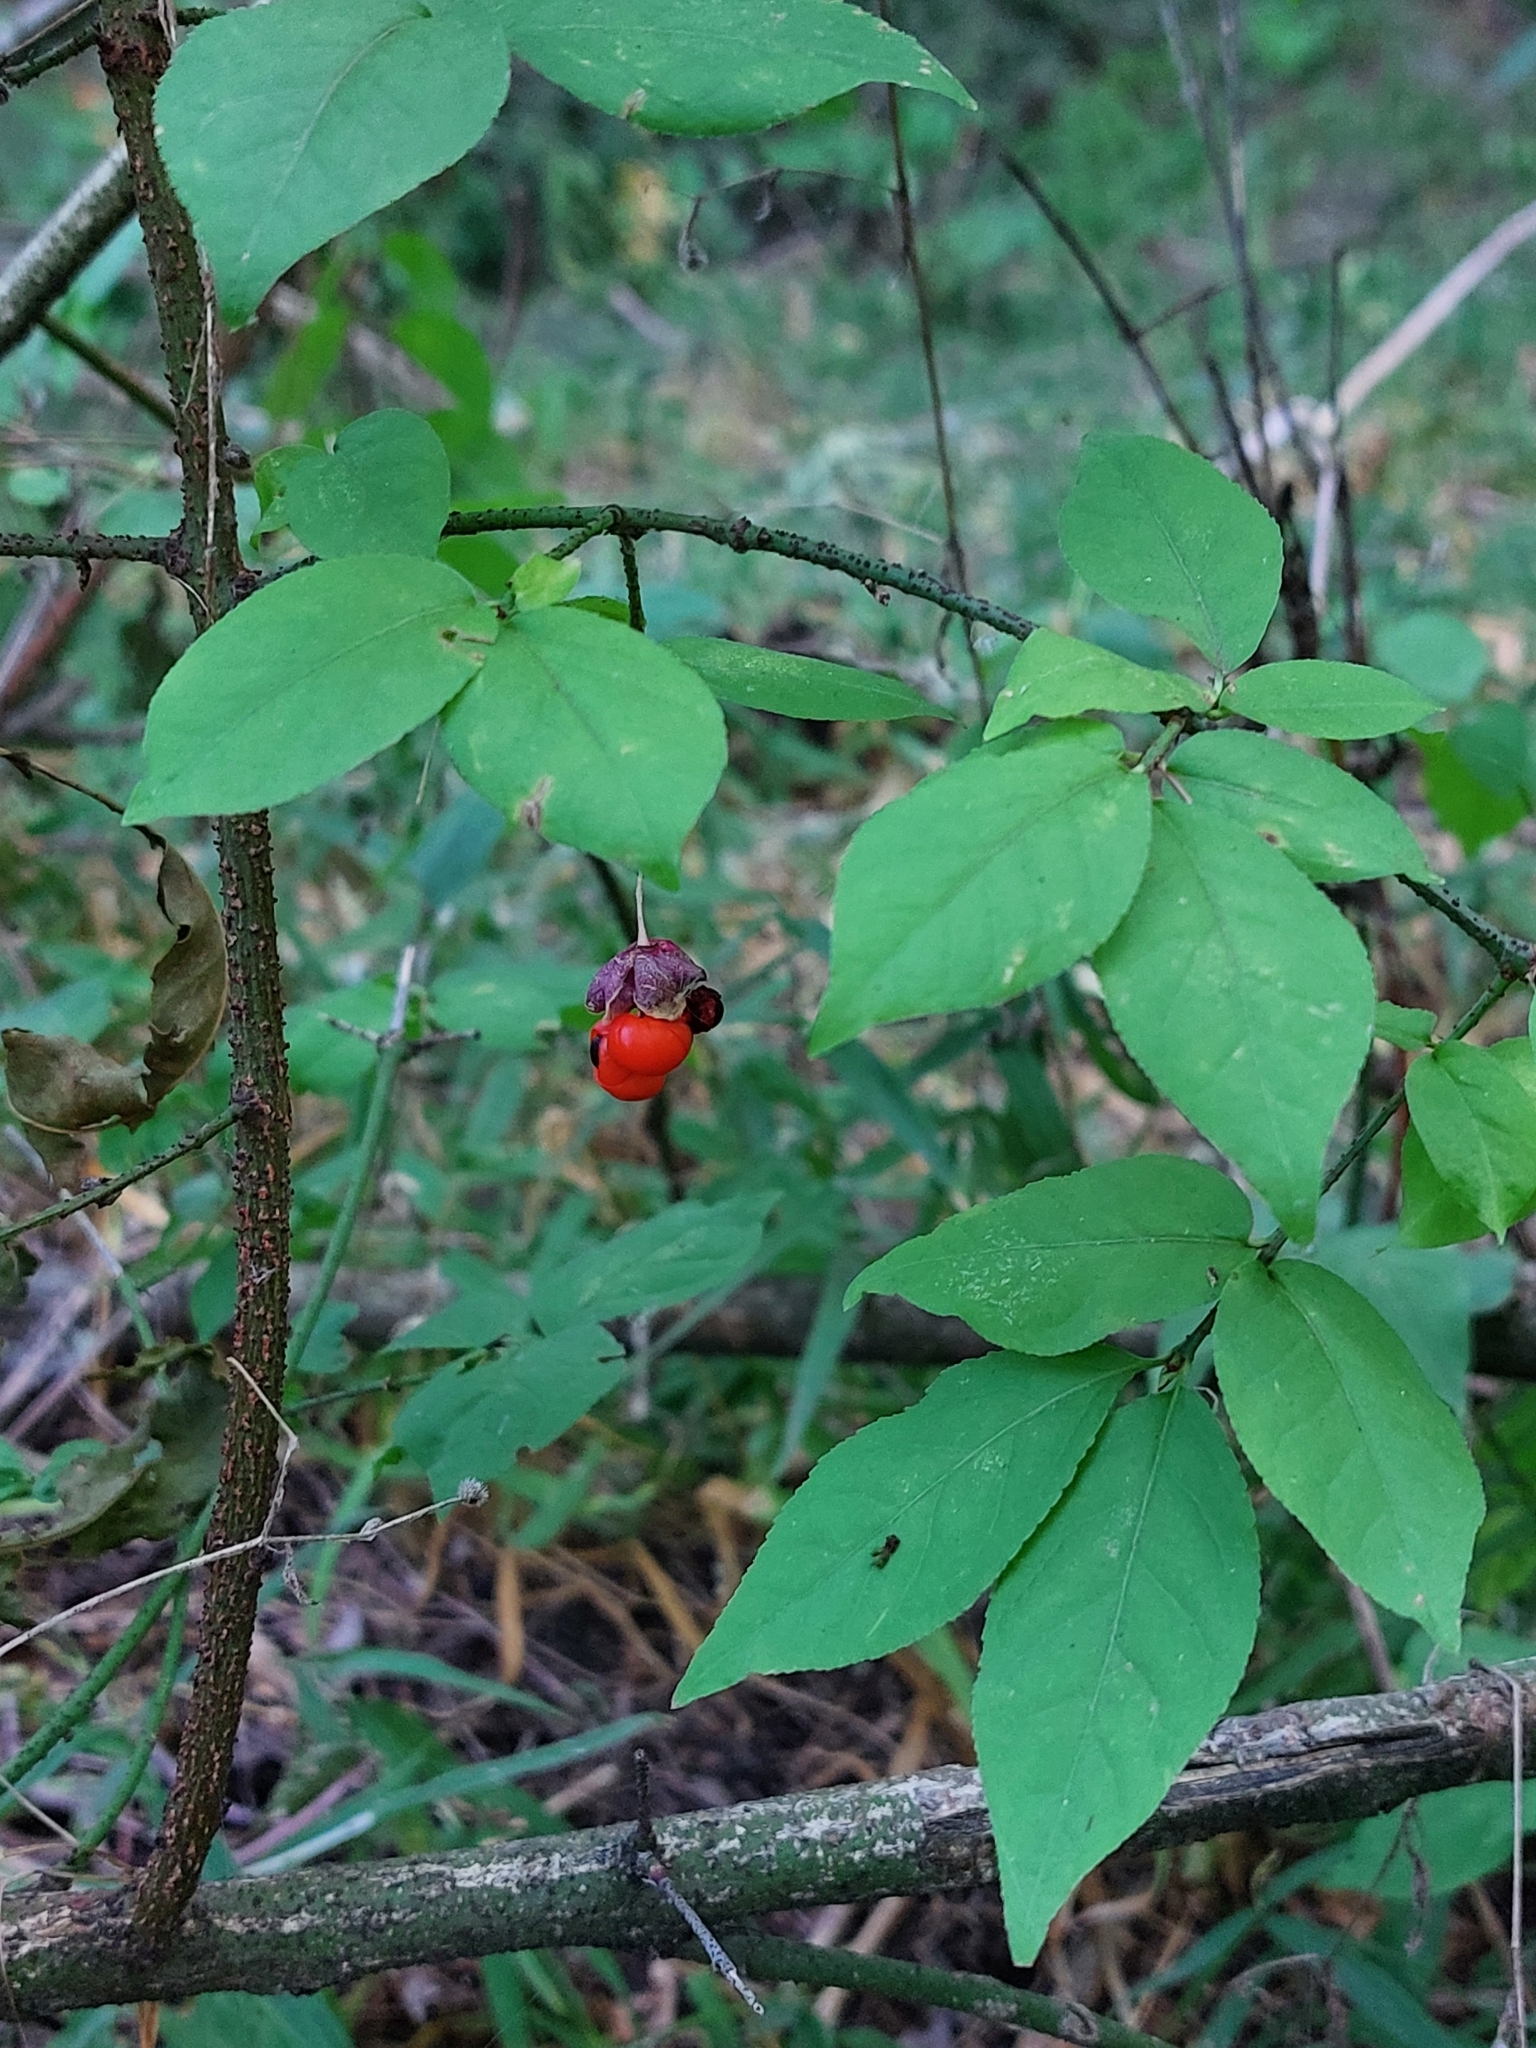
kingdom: Plantae
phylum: Tracheophyta
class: Magnoliopsida
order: Celastrales
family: Celastraceae
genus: Euonymus
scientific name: Euonymus verrucosus
